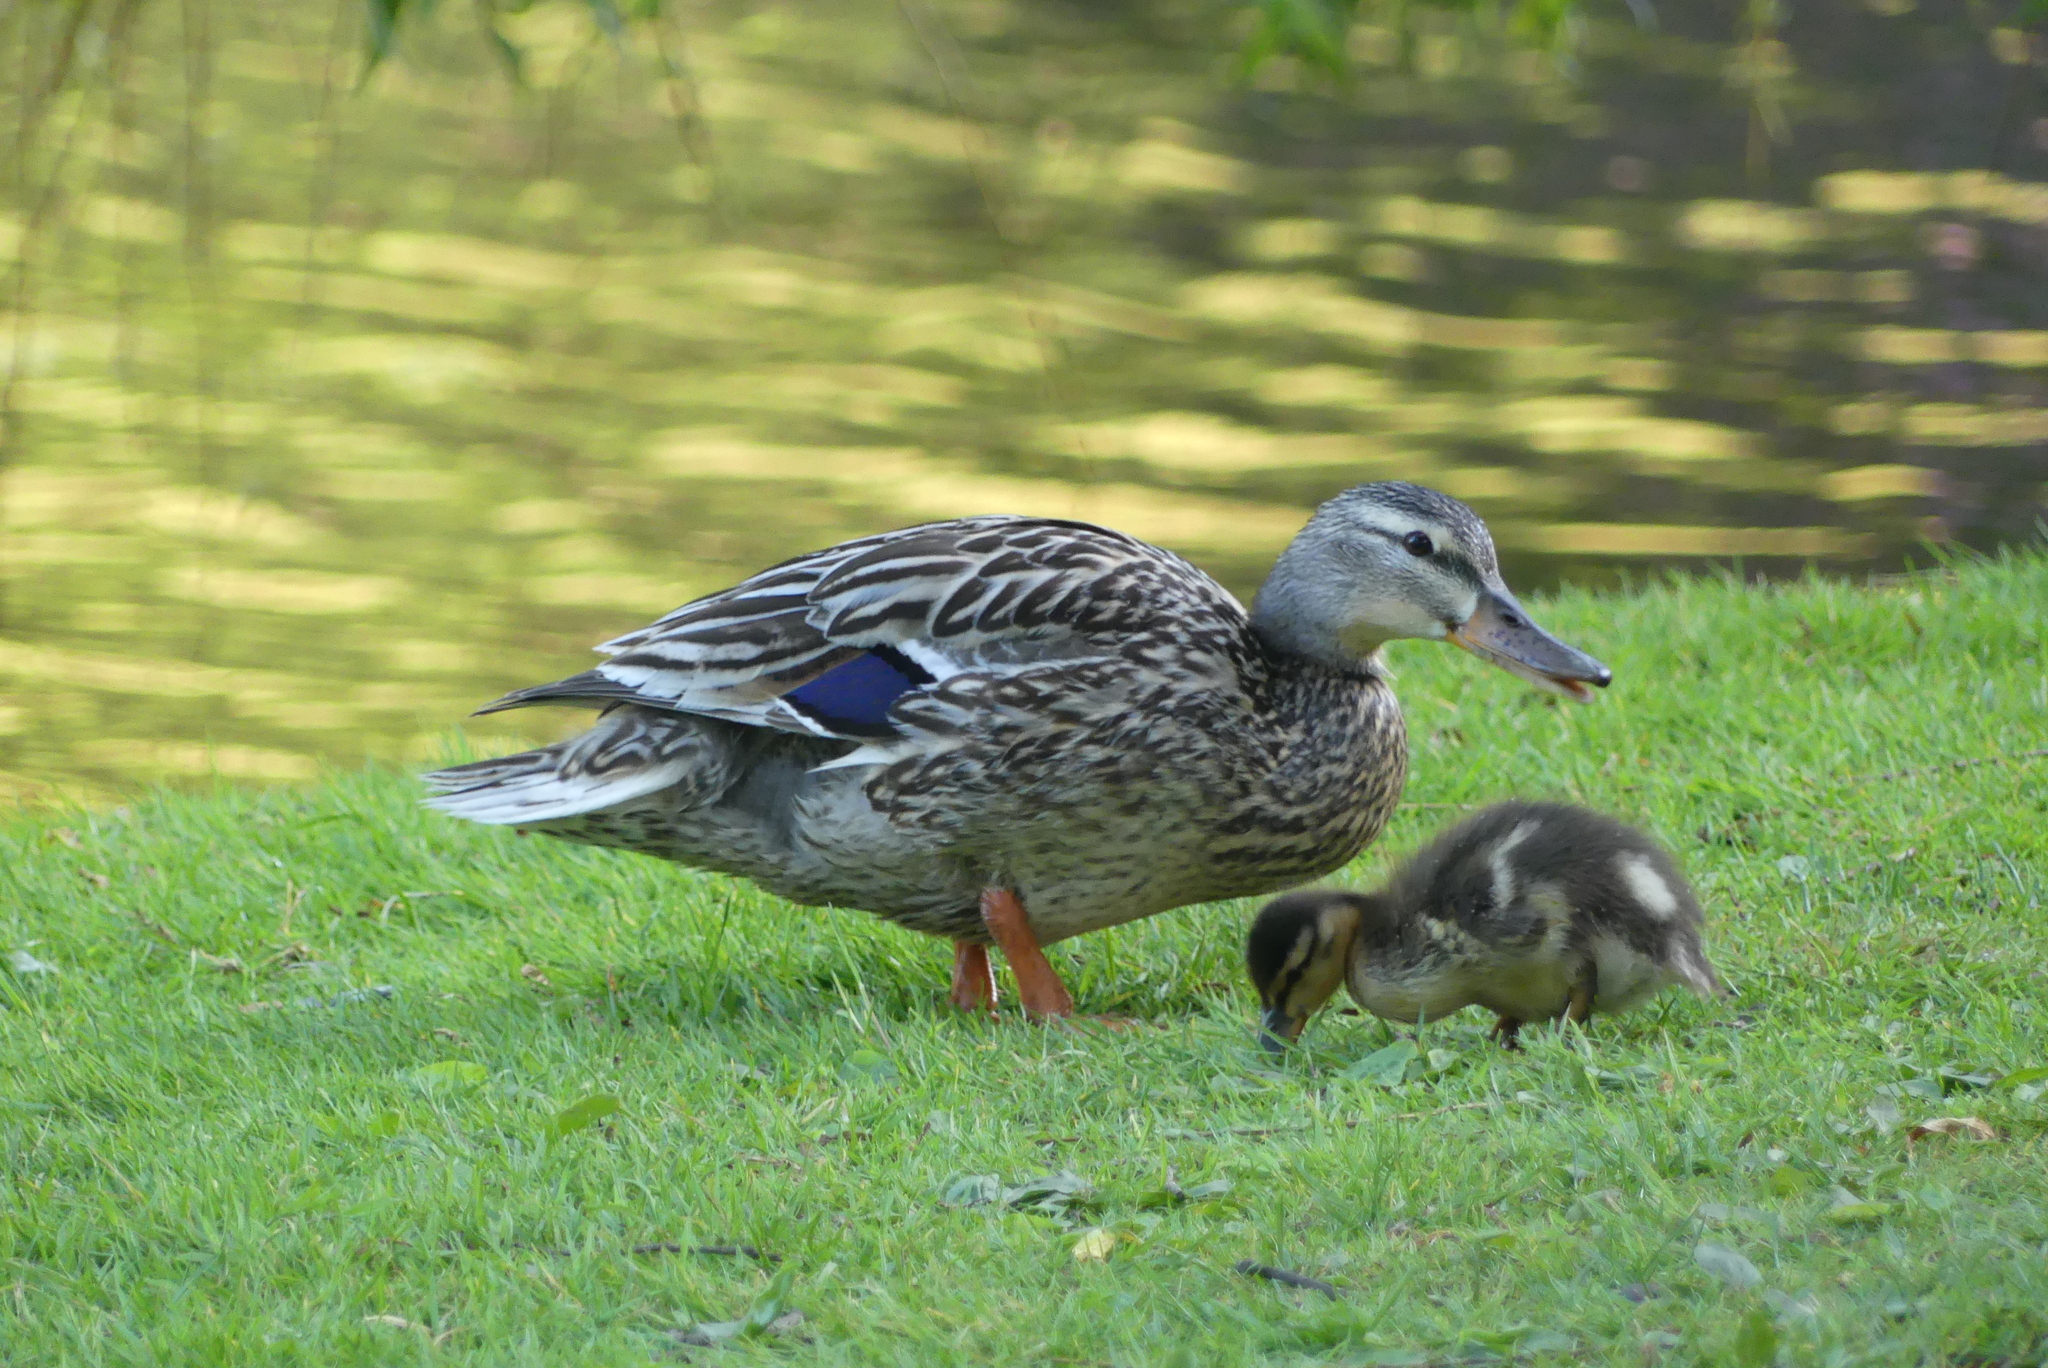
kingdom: Animalia
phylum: Chordata
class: Aves
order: Anseriformes
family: Anatidae
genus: Anas
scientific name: Anas platyrhynchos
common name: Mallard
